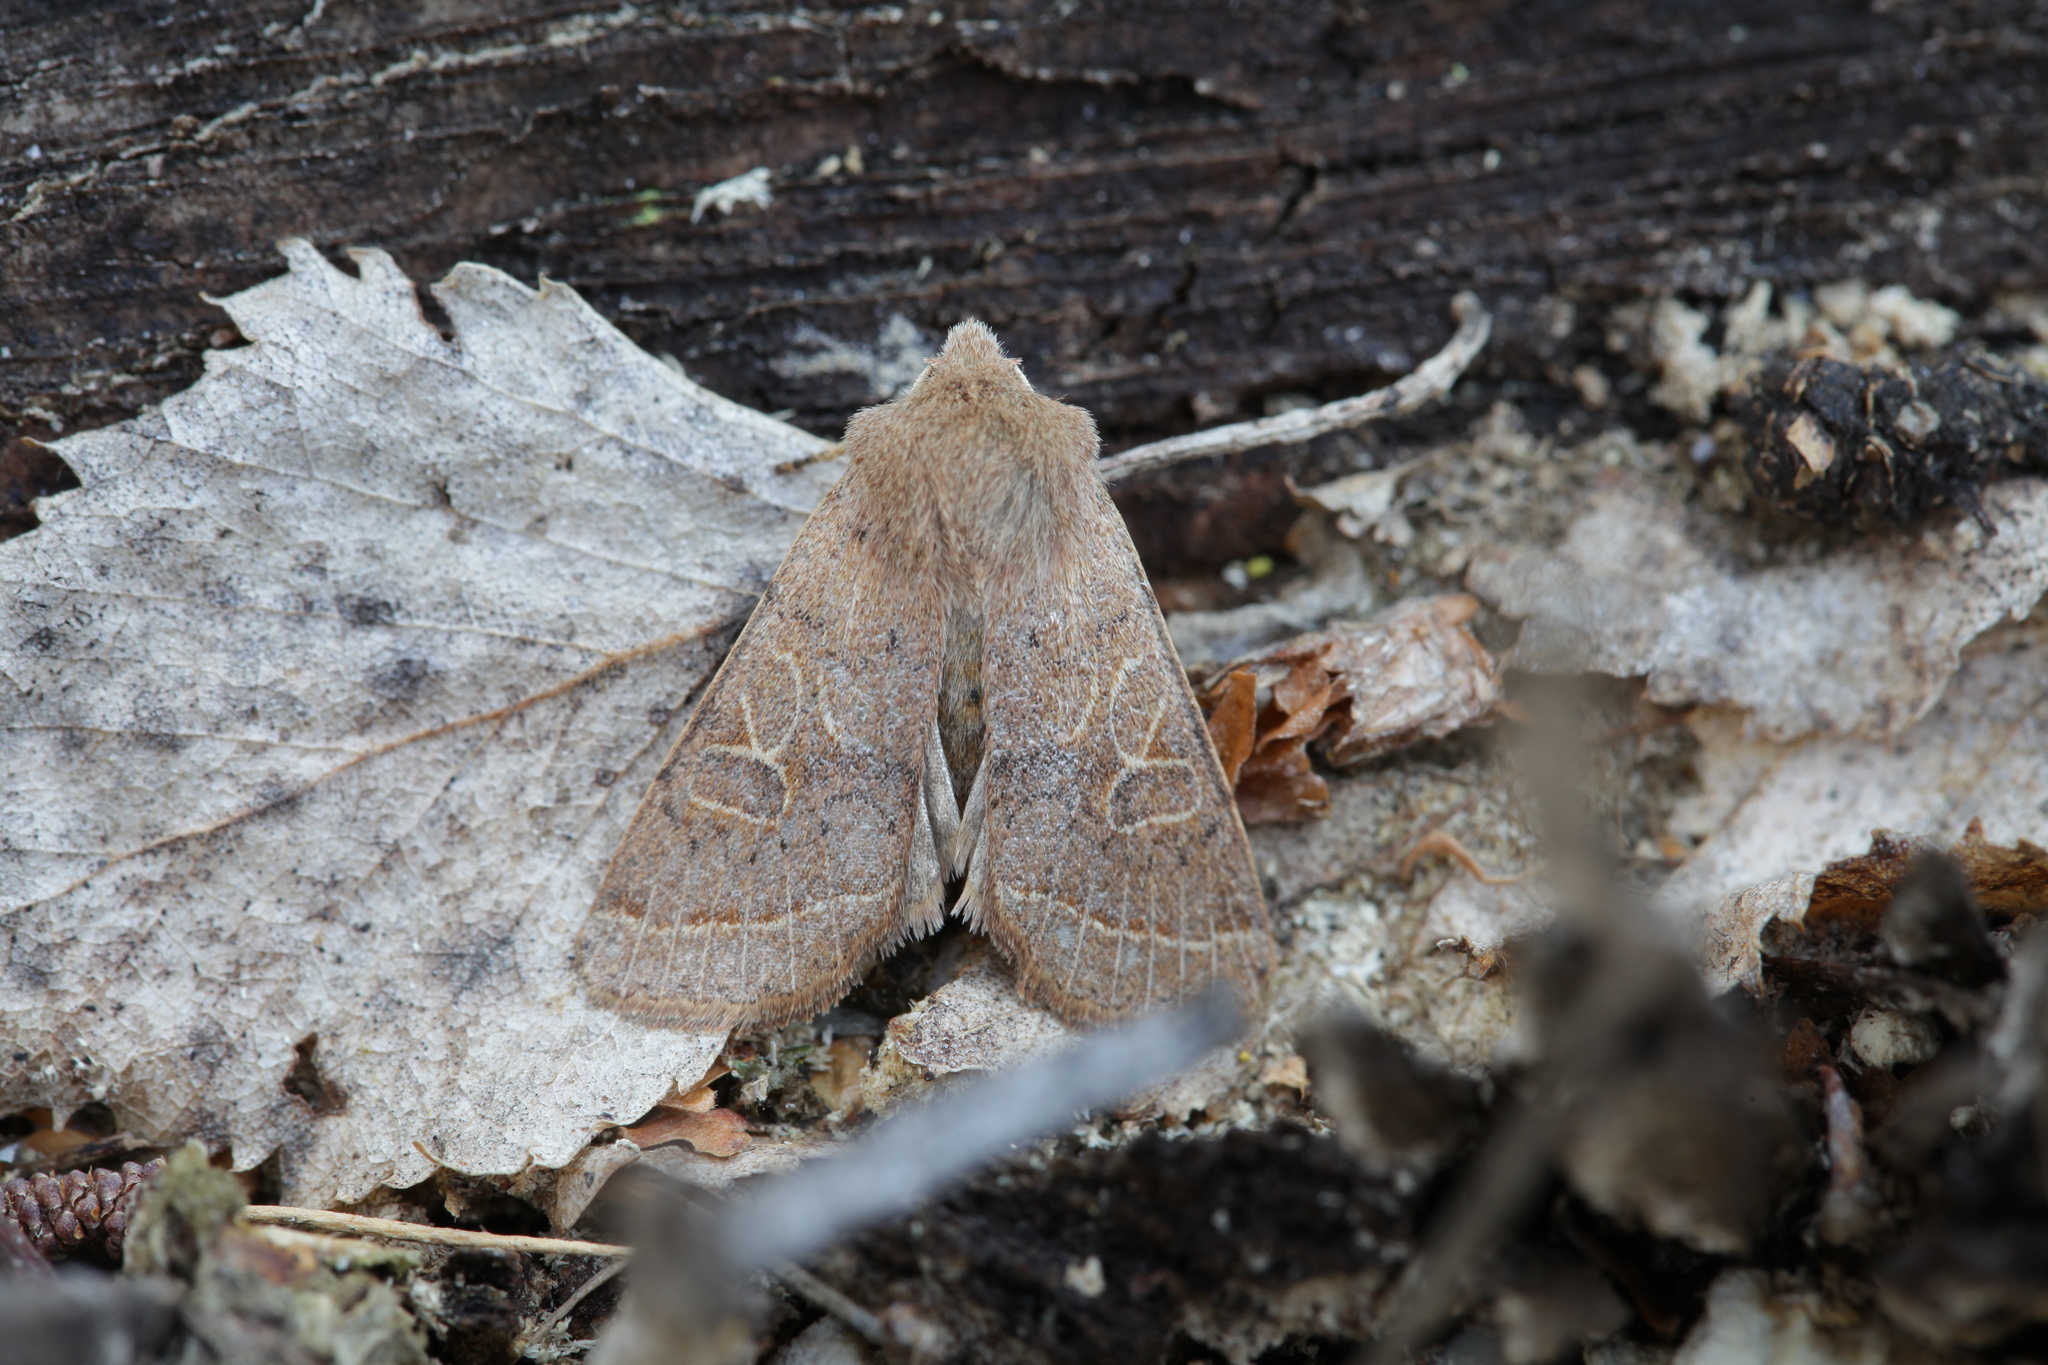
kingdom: Animalia
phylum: Arthropoda
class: Insecta
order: Lepidoptera
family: Noctuidae
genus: Orthosia
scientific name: Orthosia cerasi
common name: Common quaker
